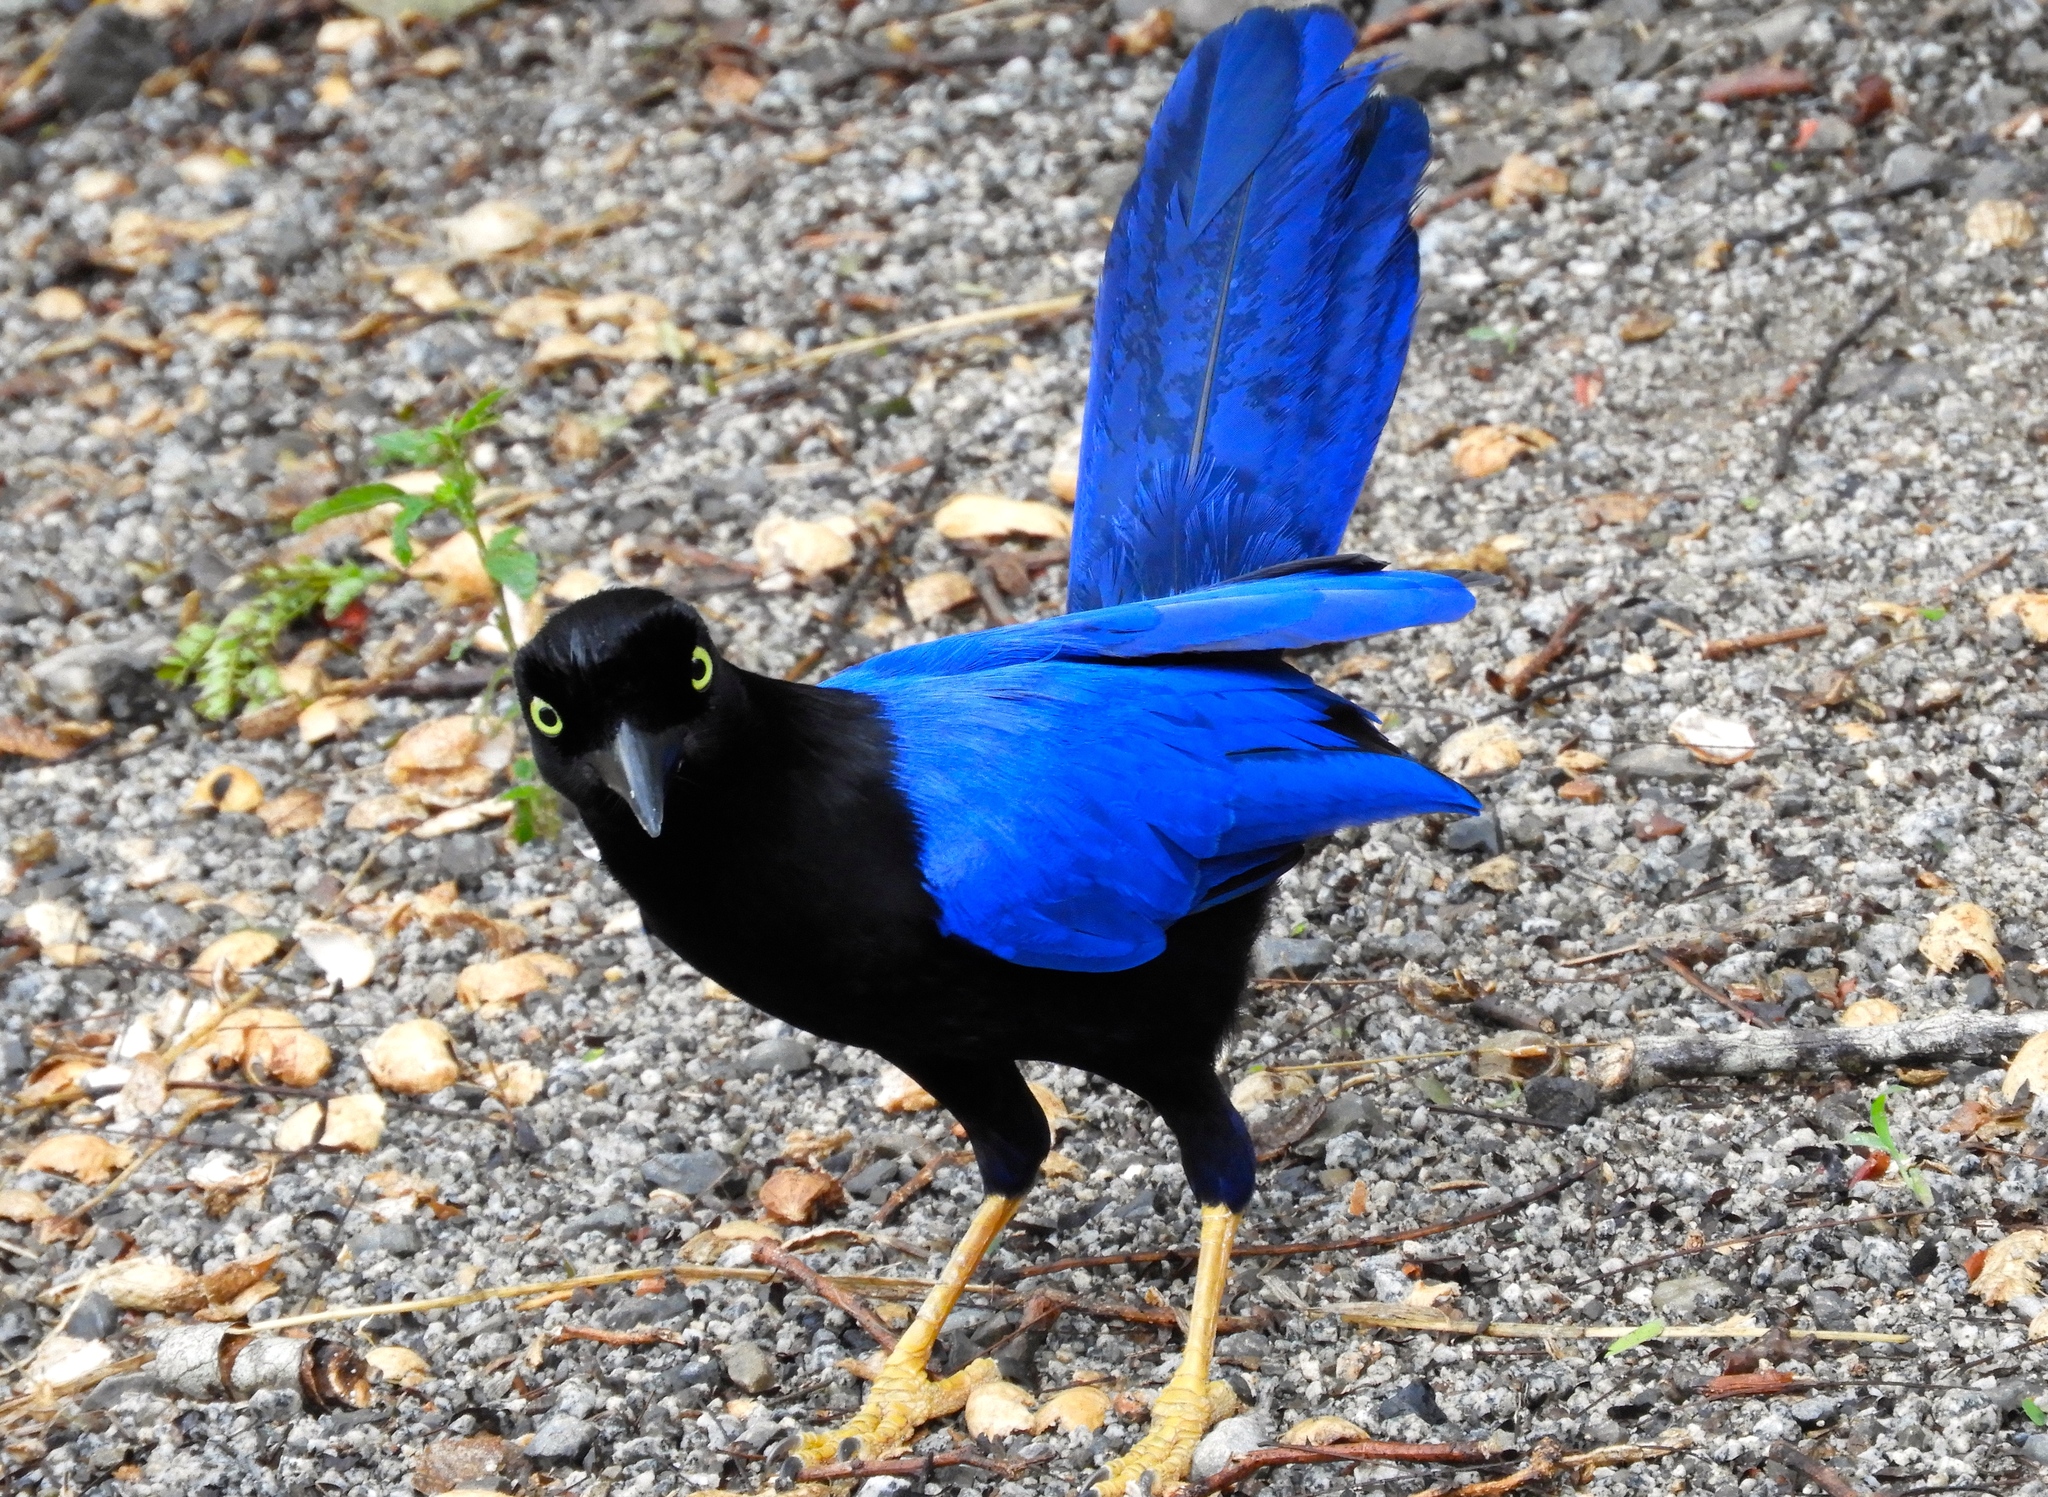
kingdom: Animalia
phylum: Chordata
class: Aves
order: Passeriformes
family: Corvidae
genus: Cyanocorax
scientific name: Cyanocorax beecheii
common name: Purplish-backed jay
